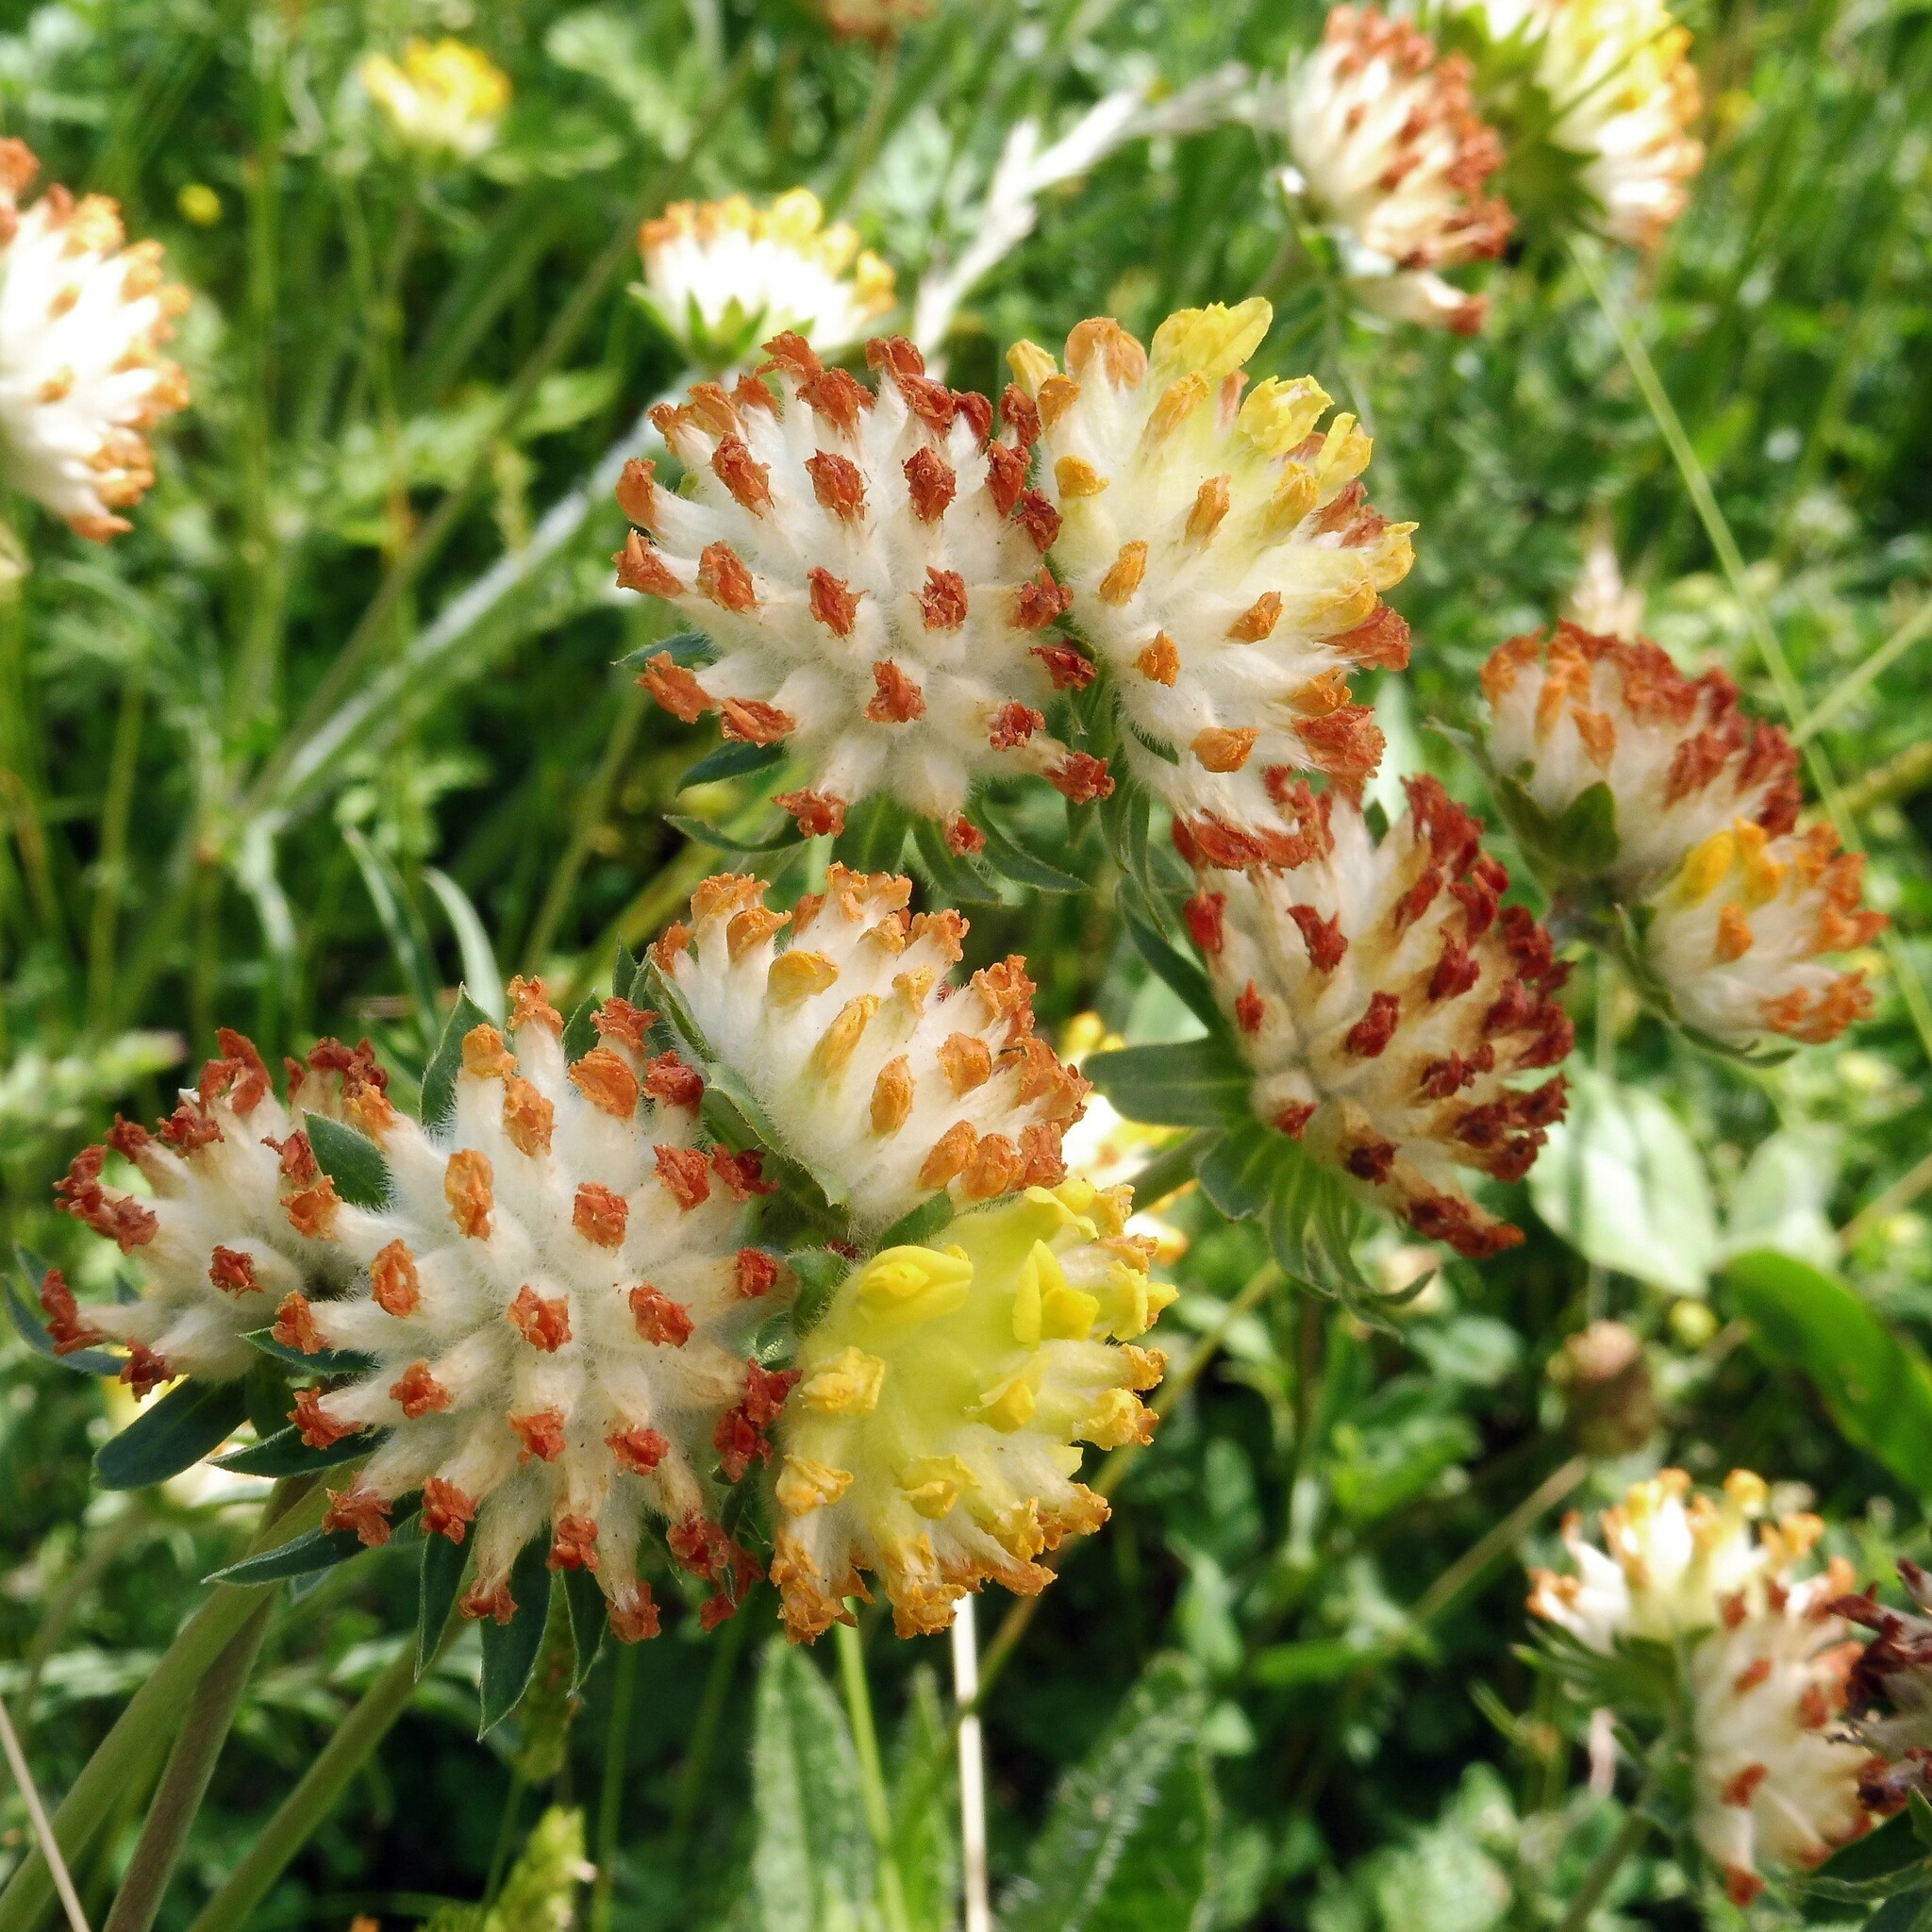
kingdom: Plantae
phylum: Tracheophyta
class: Magnoliopsida
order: Fabales
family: Fabaceae
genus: Anthyllis
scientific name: Anthyllis vulneraria
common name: Kidney vetch
